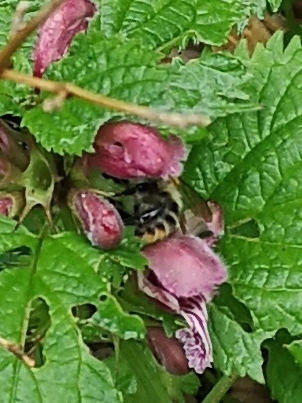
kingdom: Animalia
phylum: Arthropoda
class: Insecta
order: Hymenoptera
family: Apidae
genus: Bombus
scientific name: Bombus pascuorum
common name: Common carder bee
